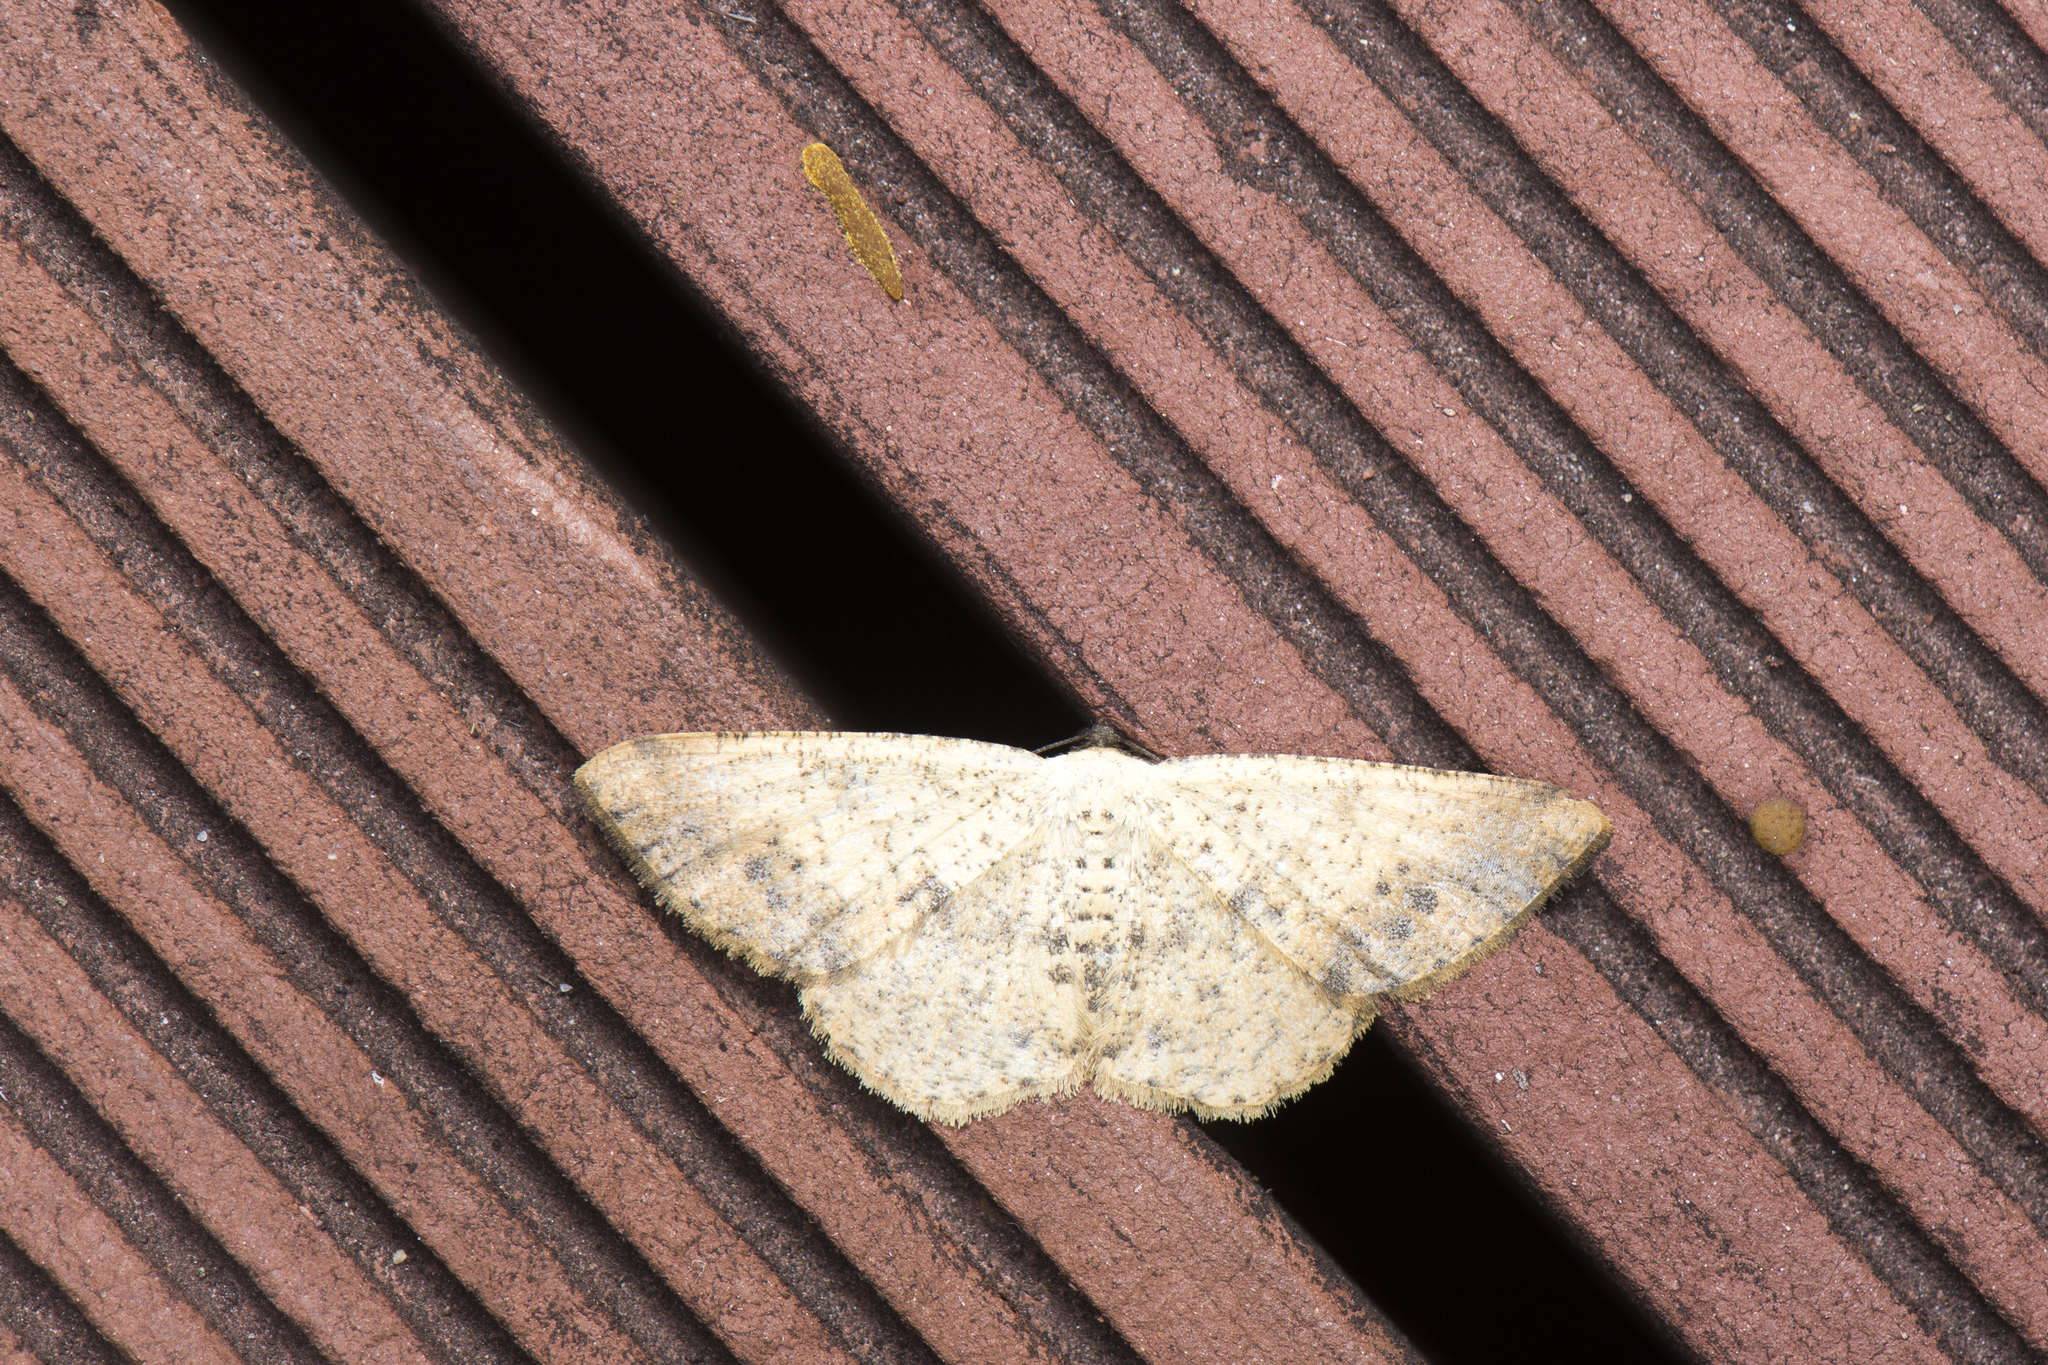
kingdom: Animalia
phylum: Arthropoda
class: Insecta
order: Lepidoptera
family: Geometridae
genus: Alcis
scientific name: Alcis ochrolaria
